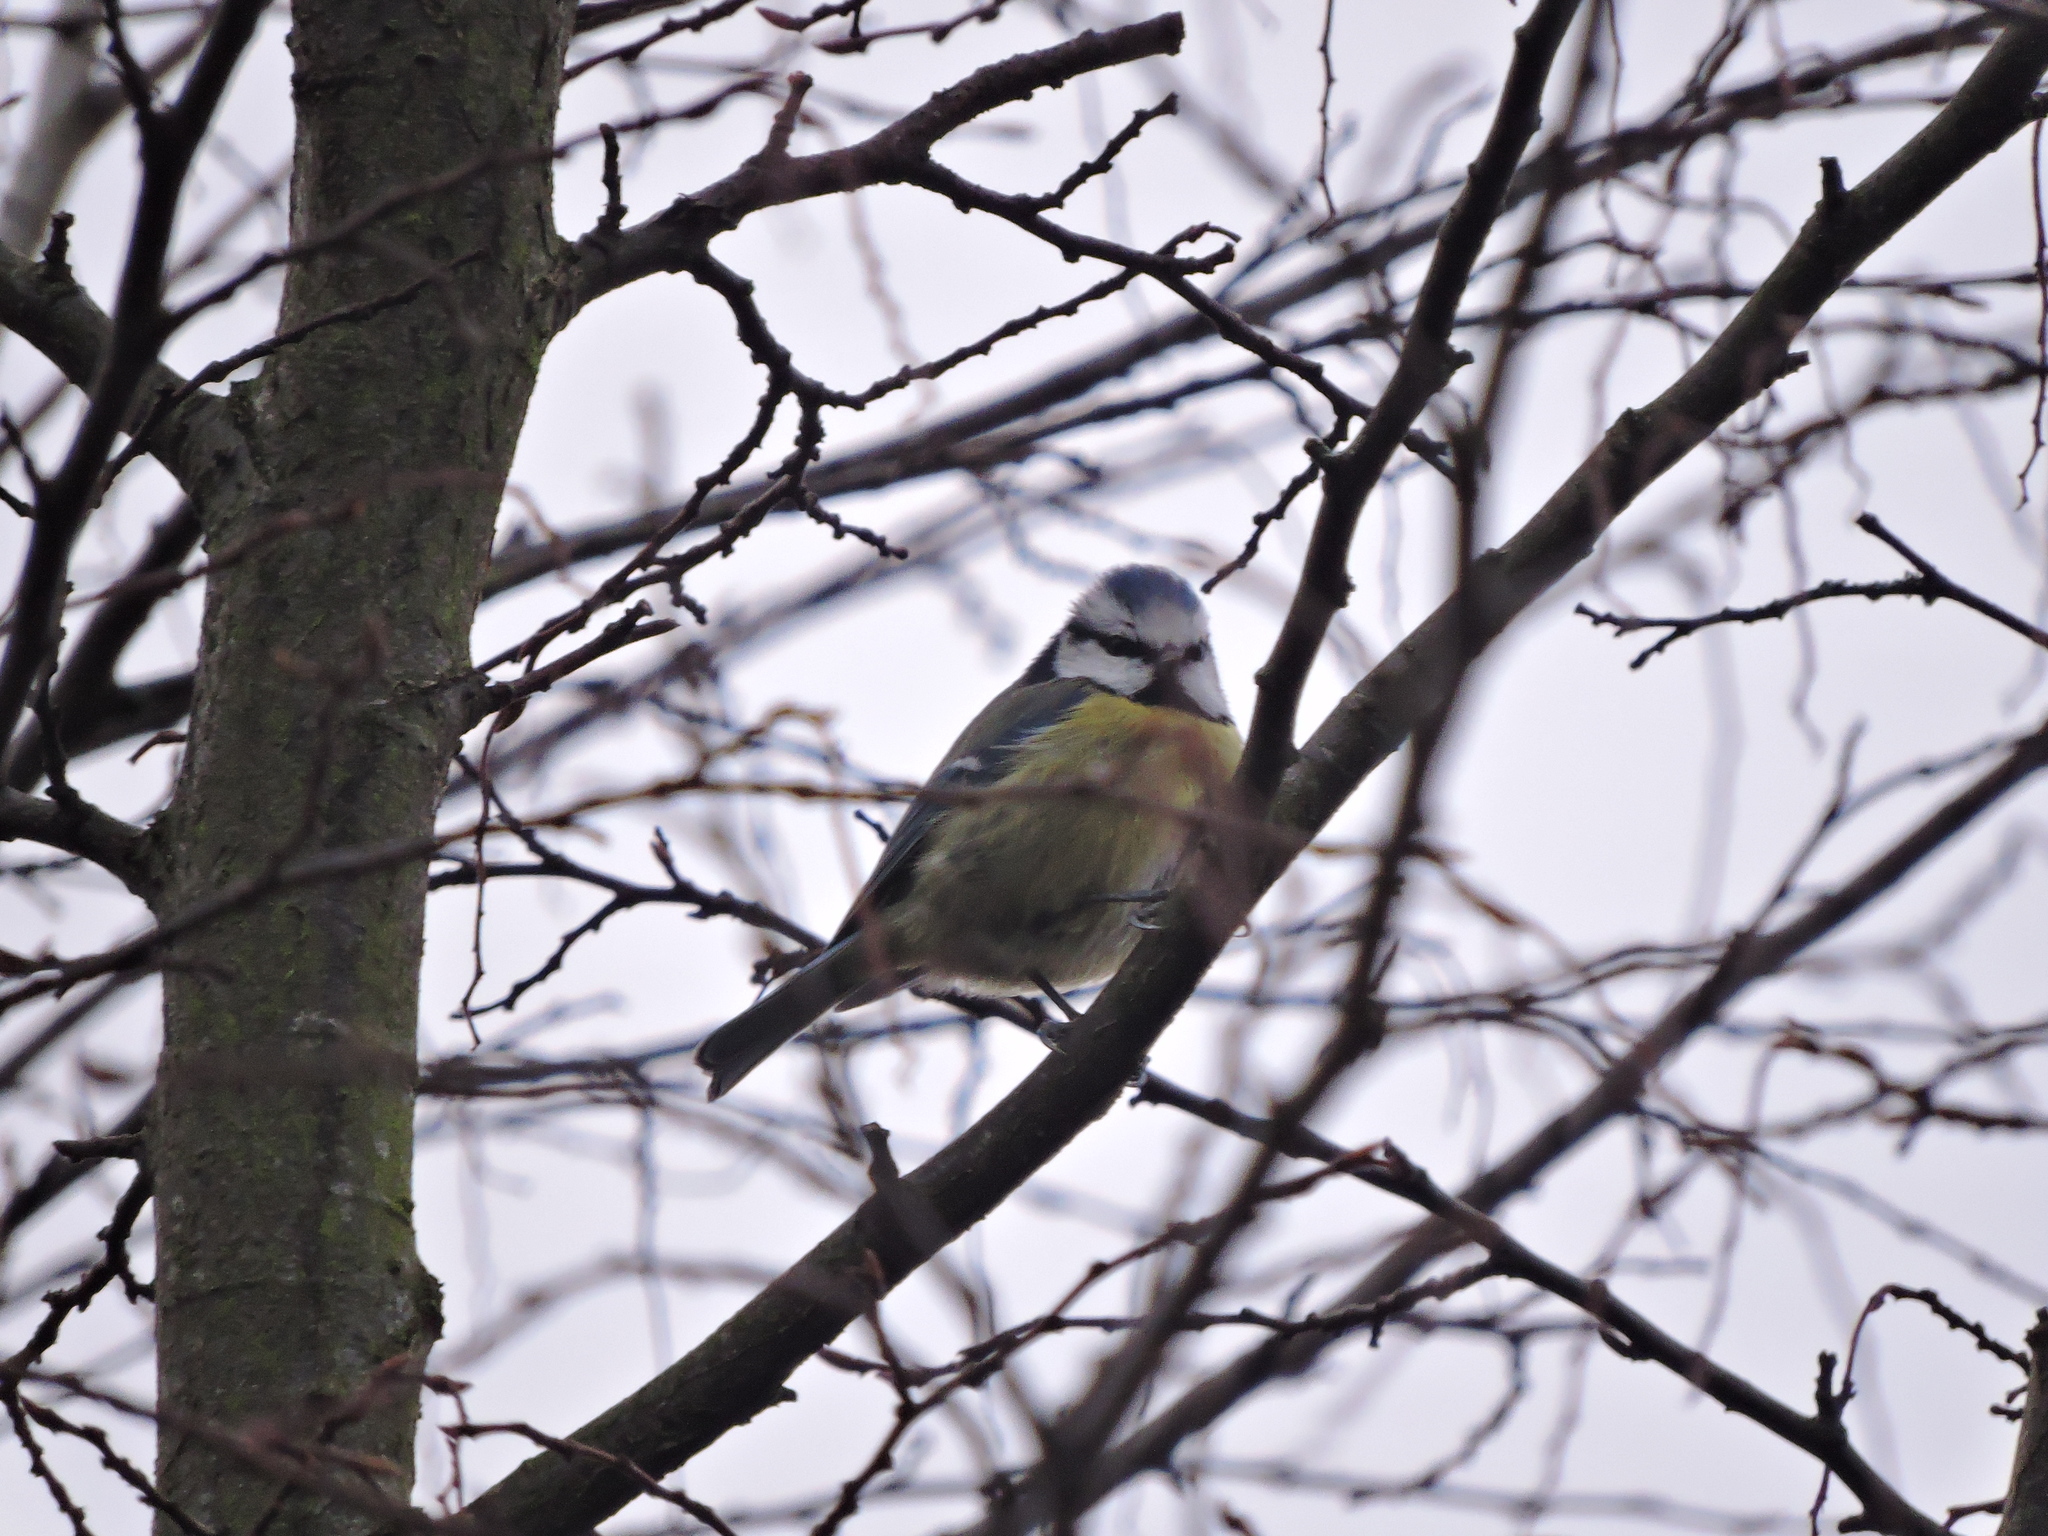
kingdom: Animalia
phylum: Chordata
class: Aves
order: Passeriformes
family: Paridae
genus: Cyanistes
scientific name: Cyanistes caeruleus
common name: Eurasian blue tit
